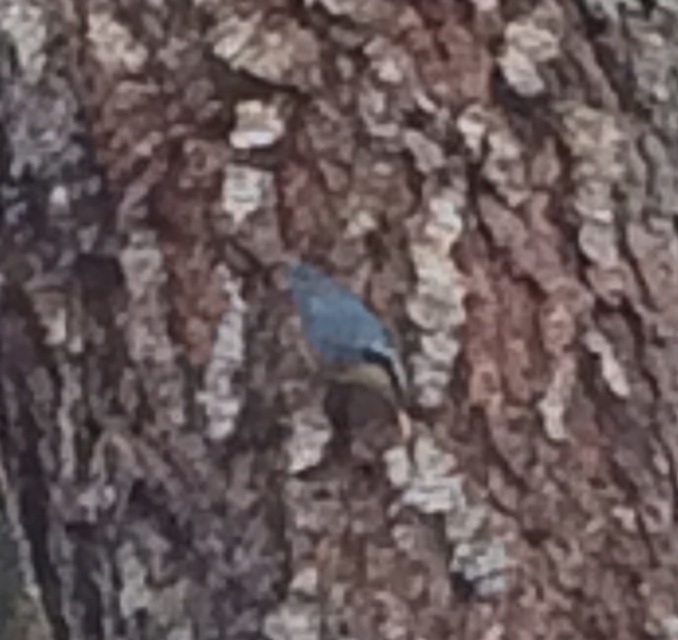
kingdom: Animalia
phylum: Chordata
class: Aves
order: Passeriformes
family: Sittidae
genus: Sitta
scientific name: Sitta canadensis
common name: Red-breasted nuthatch
